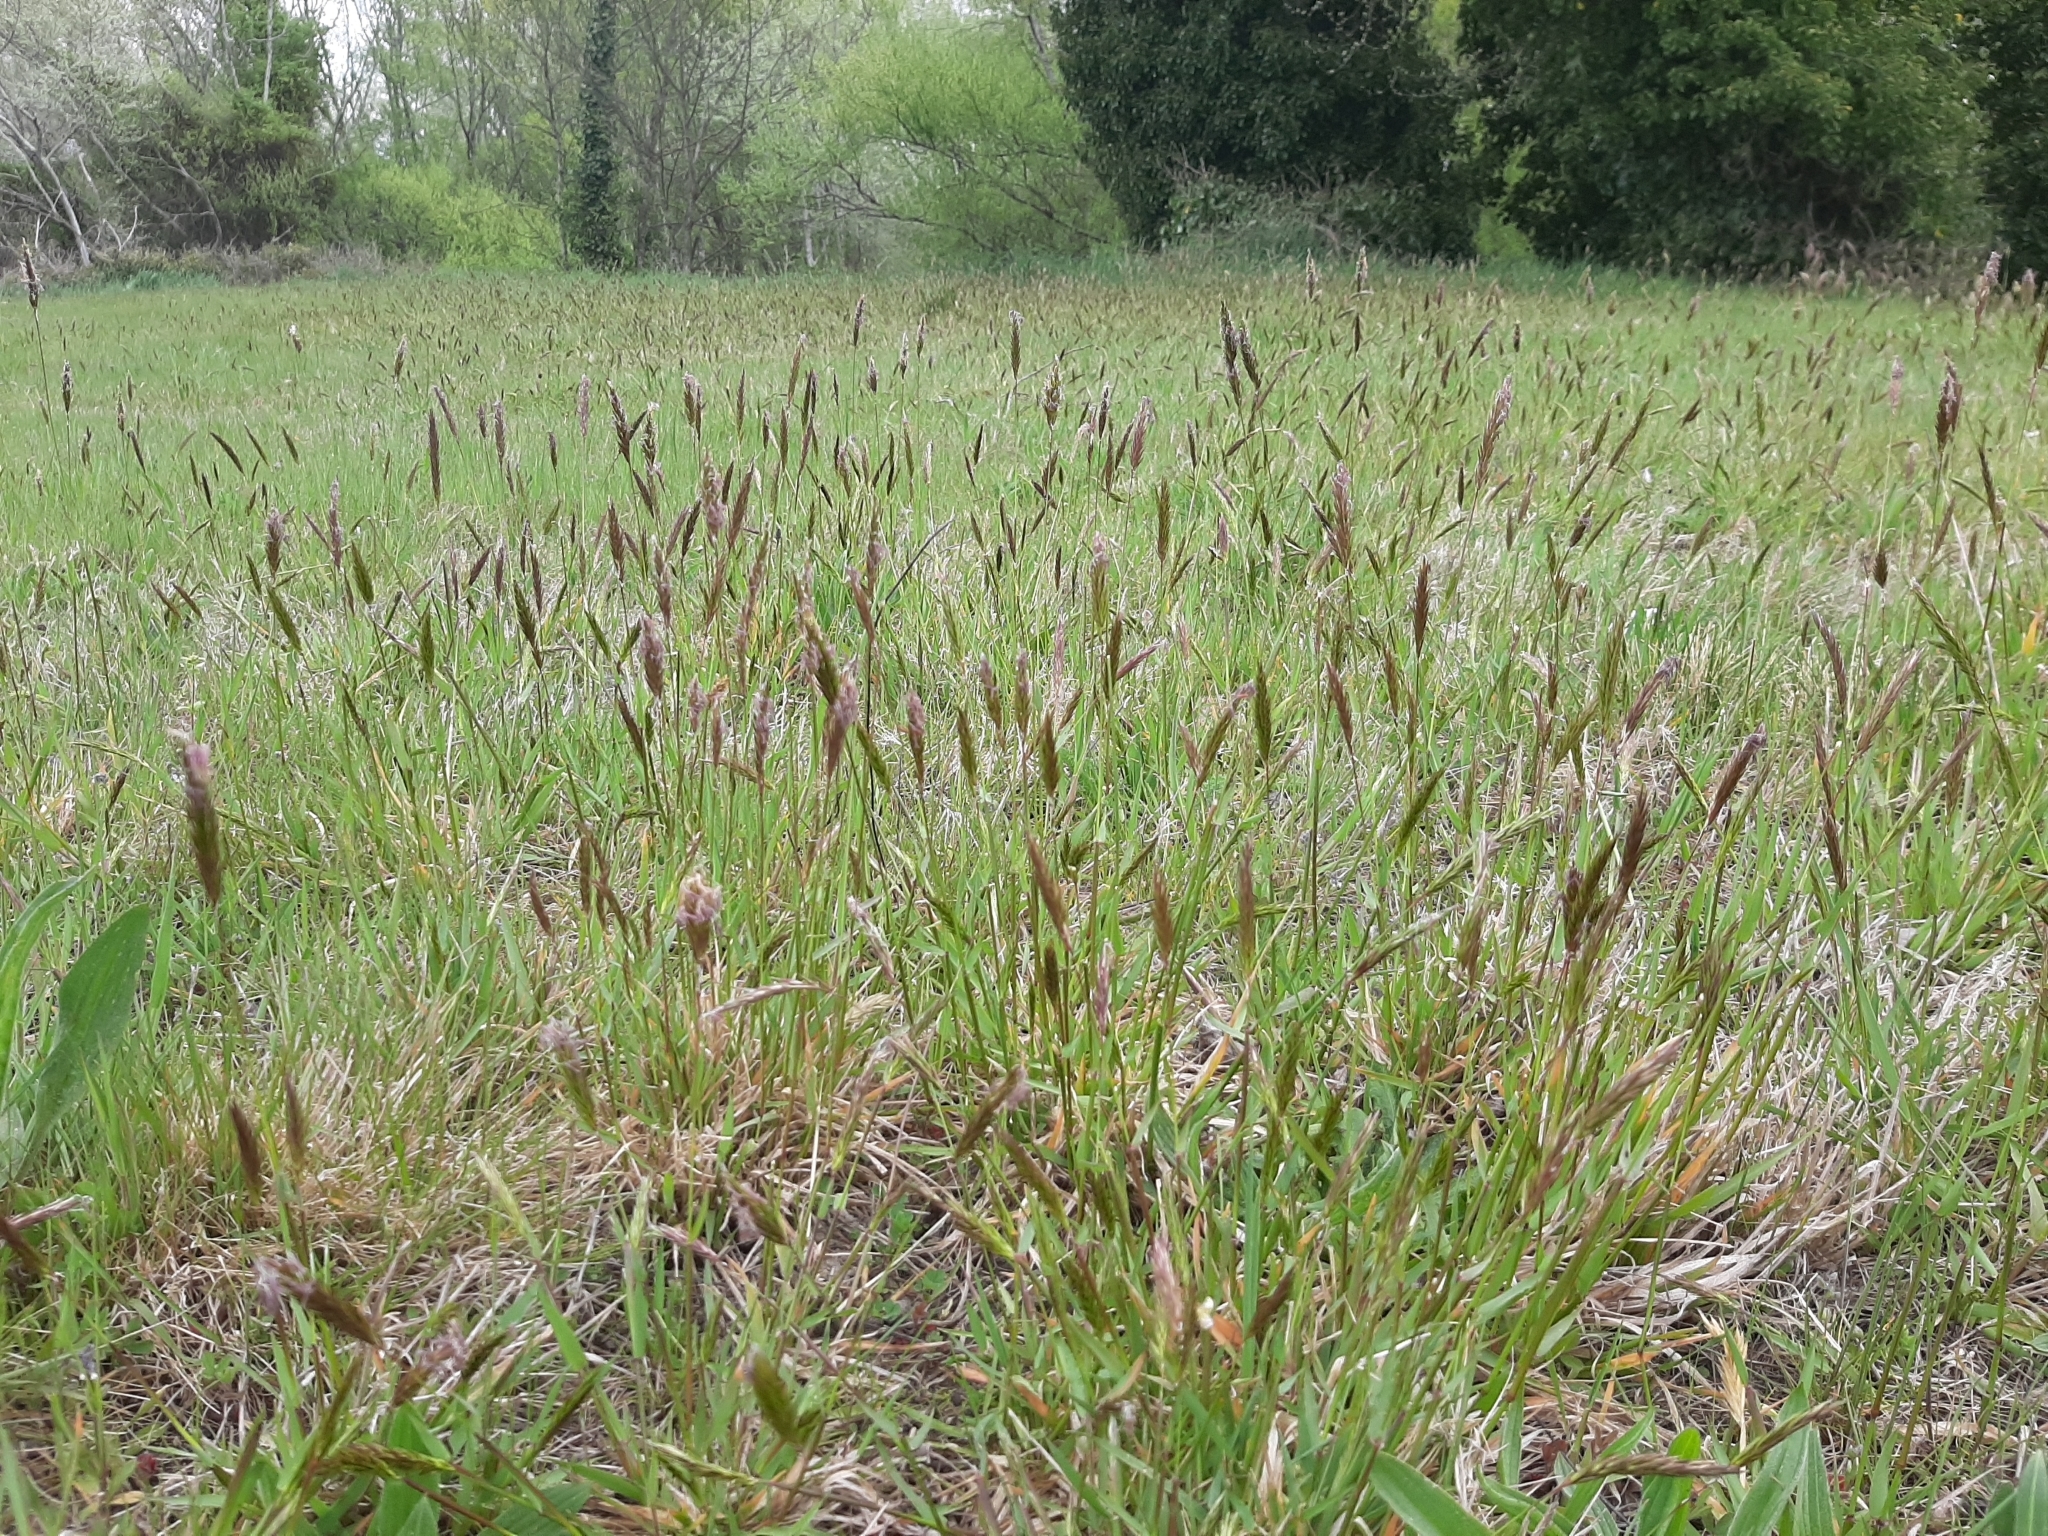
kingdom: Plantae
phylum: Tracheophyta
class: Liliopsida
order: Poales
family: Poaceae
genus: Anthoxanthum
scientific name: Anthoxanthum odoratum
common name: Sweet vernalgrass
